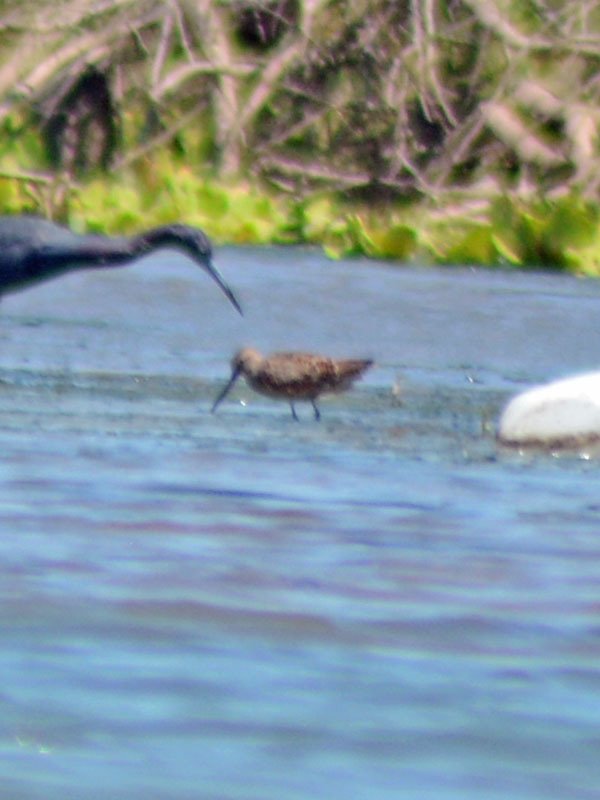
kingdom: Animalia
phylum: Chordata
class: Aves
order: Charadriiformes
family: Scolopacidae
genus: Limnodromus
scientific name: Limnodromus
